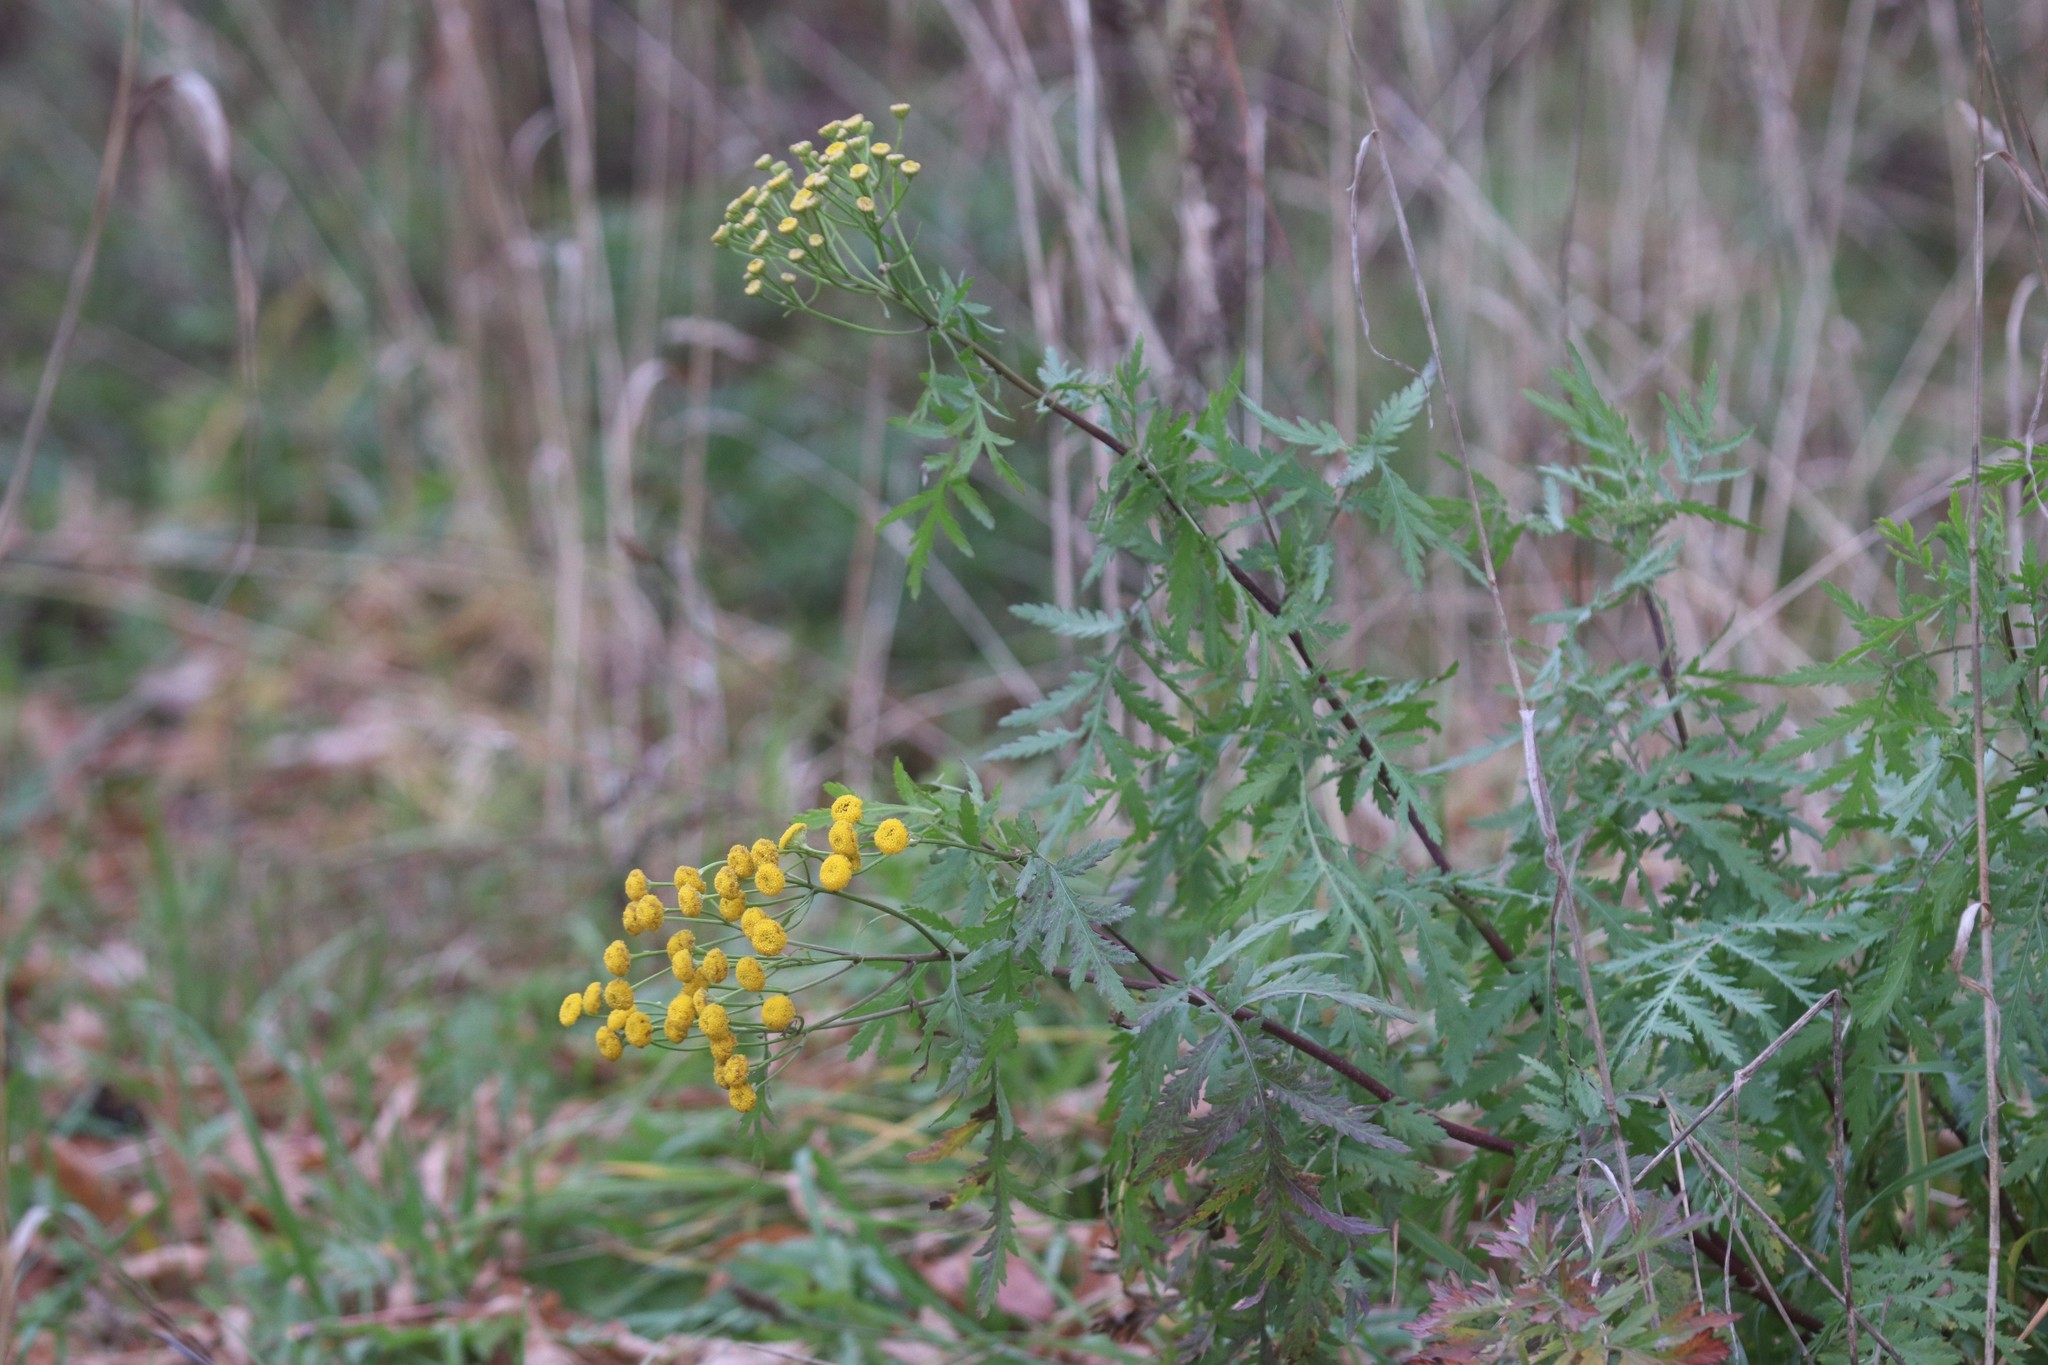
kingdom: Plantae
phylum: Tracheophyta
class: Magnoliopsida
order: Asterales
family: Asteraceae
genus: Tanacetum
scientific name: Tanacetum vulgare
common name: Common tansy
